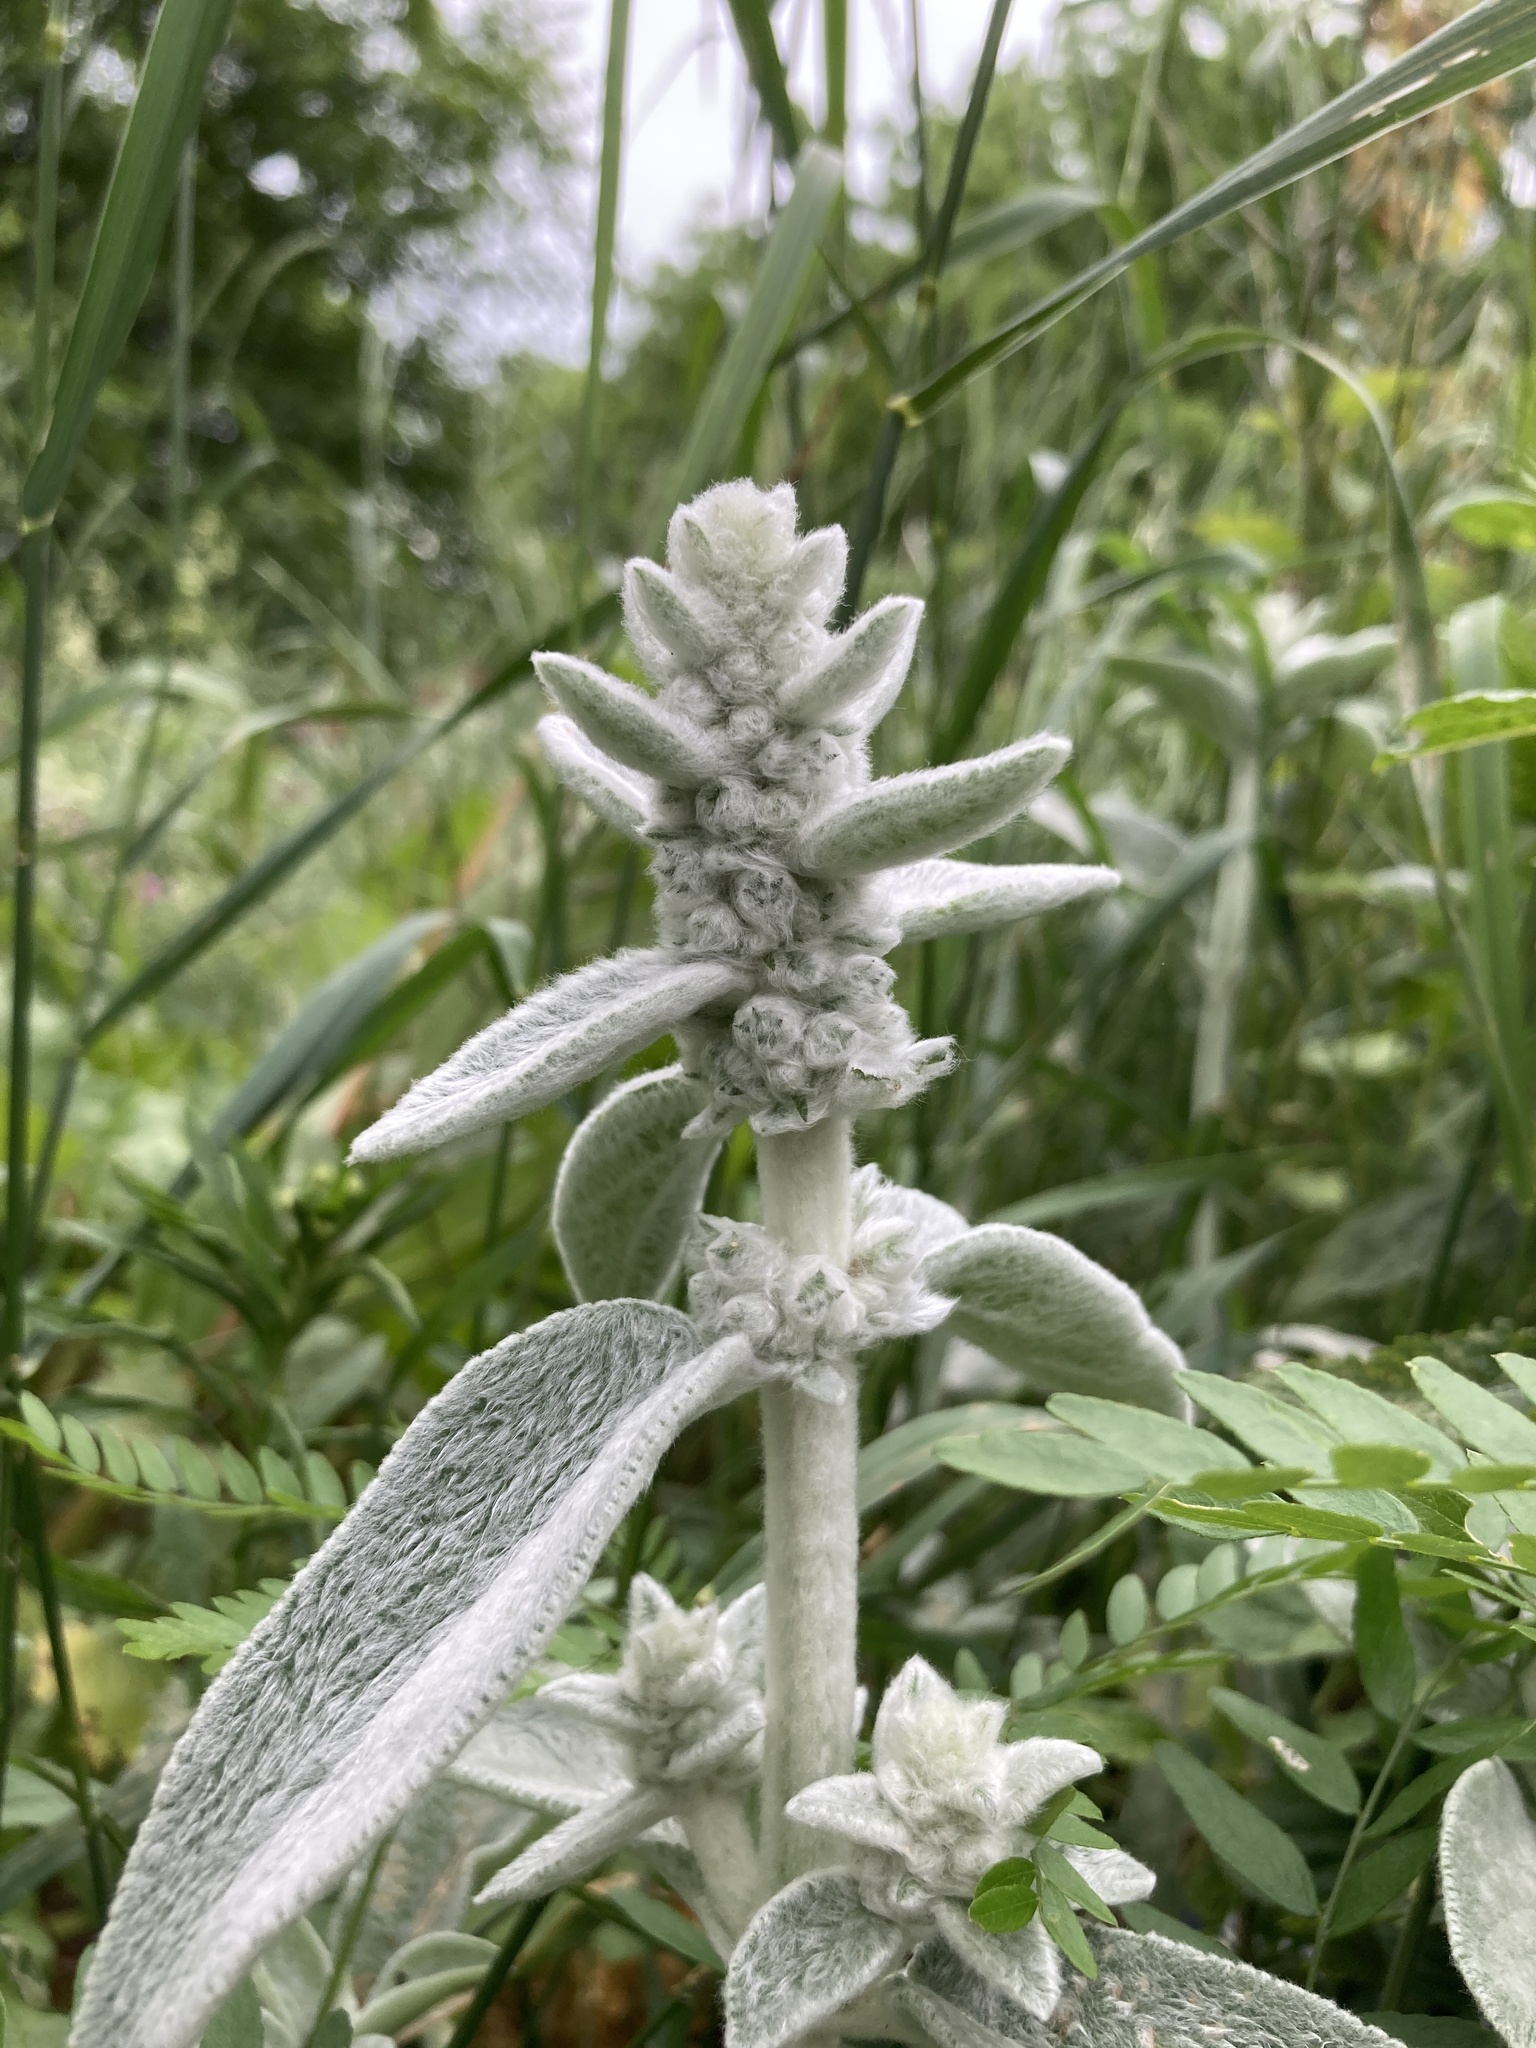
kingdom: Plantae
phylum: Tracheophyta
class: Magnoliopsida
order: Lamiales
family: Lamiaceae
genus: Stachys
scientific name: Stachys byzantina
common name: Lamb's-ear
